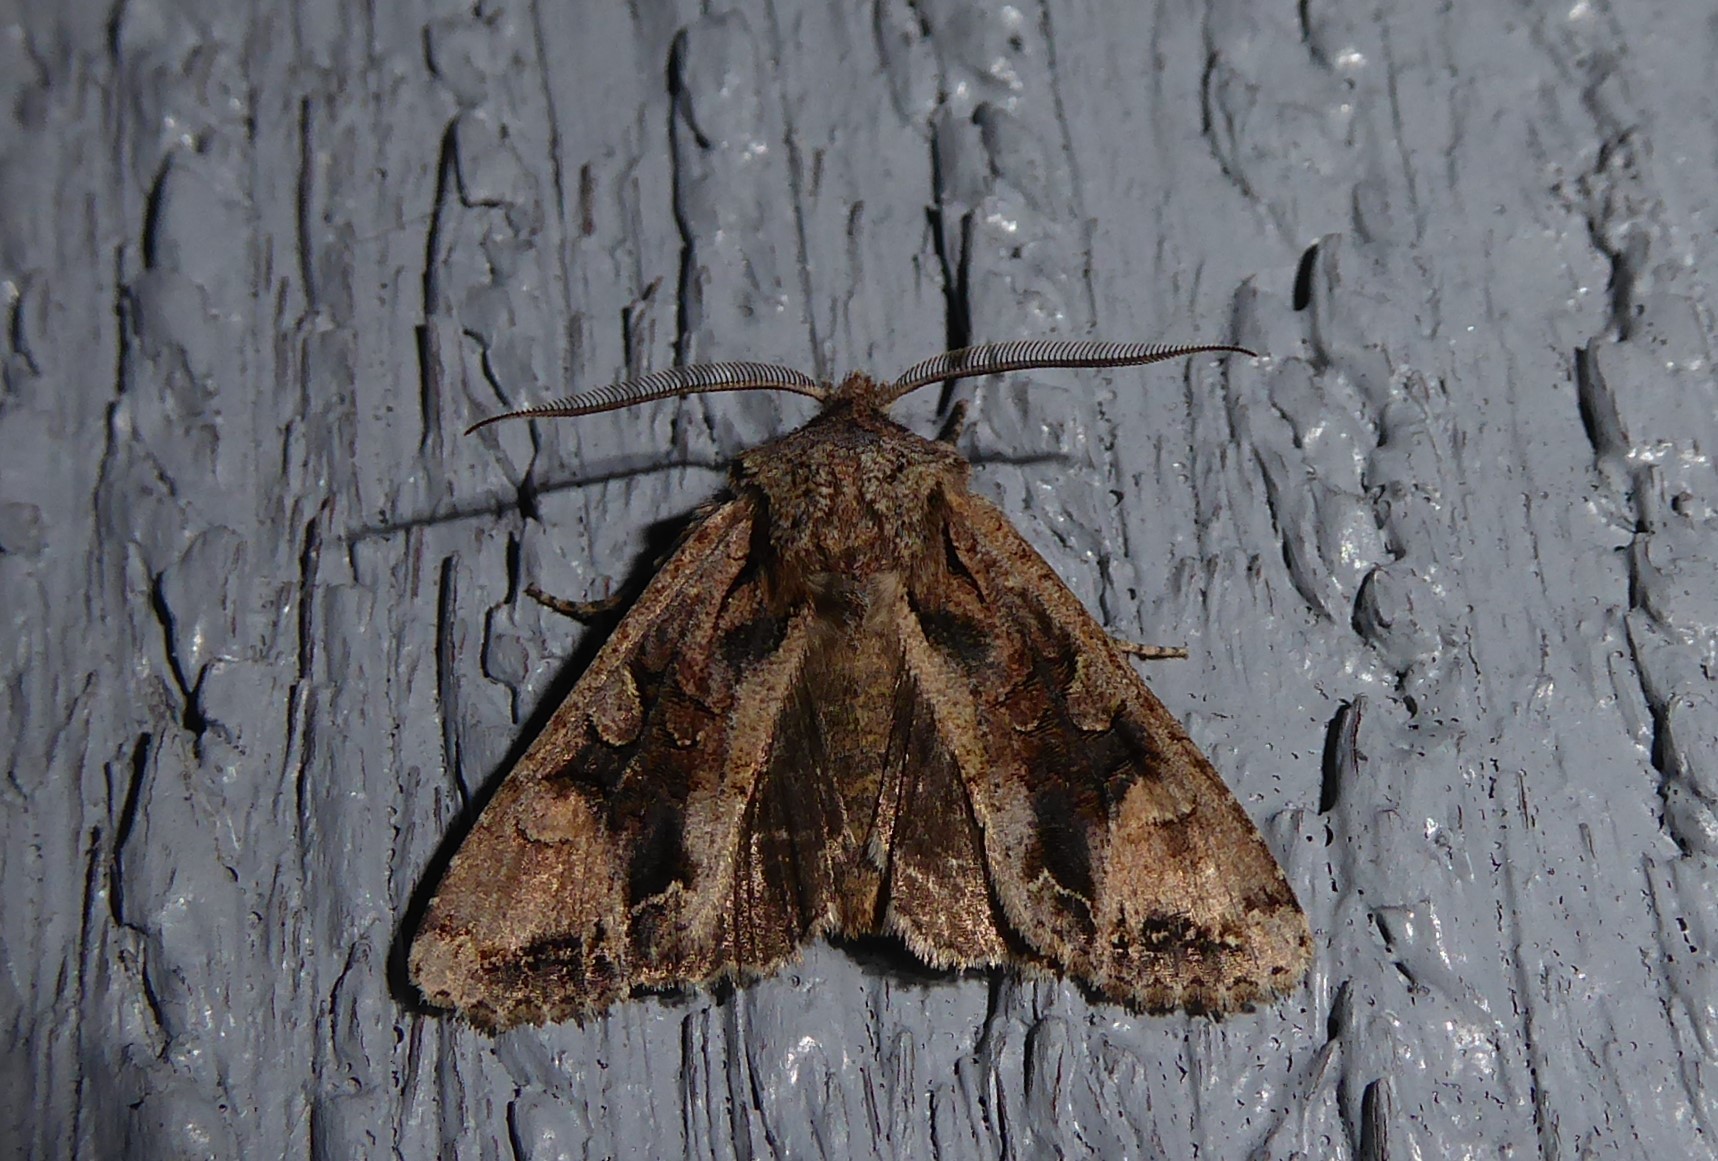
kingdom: Animalia
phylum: Arthropoda
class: Insecta
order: Lepidoptera
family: Noctuidae
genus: Ichneutica
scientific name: Ichneutica
